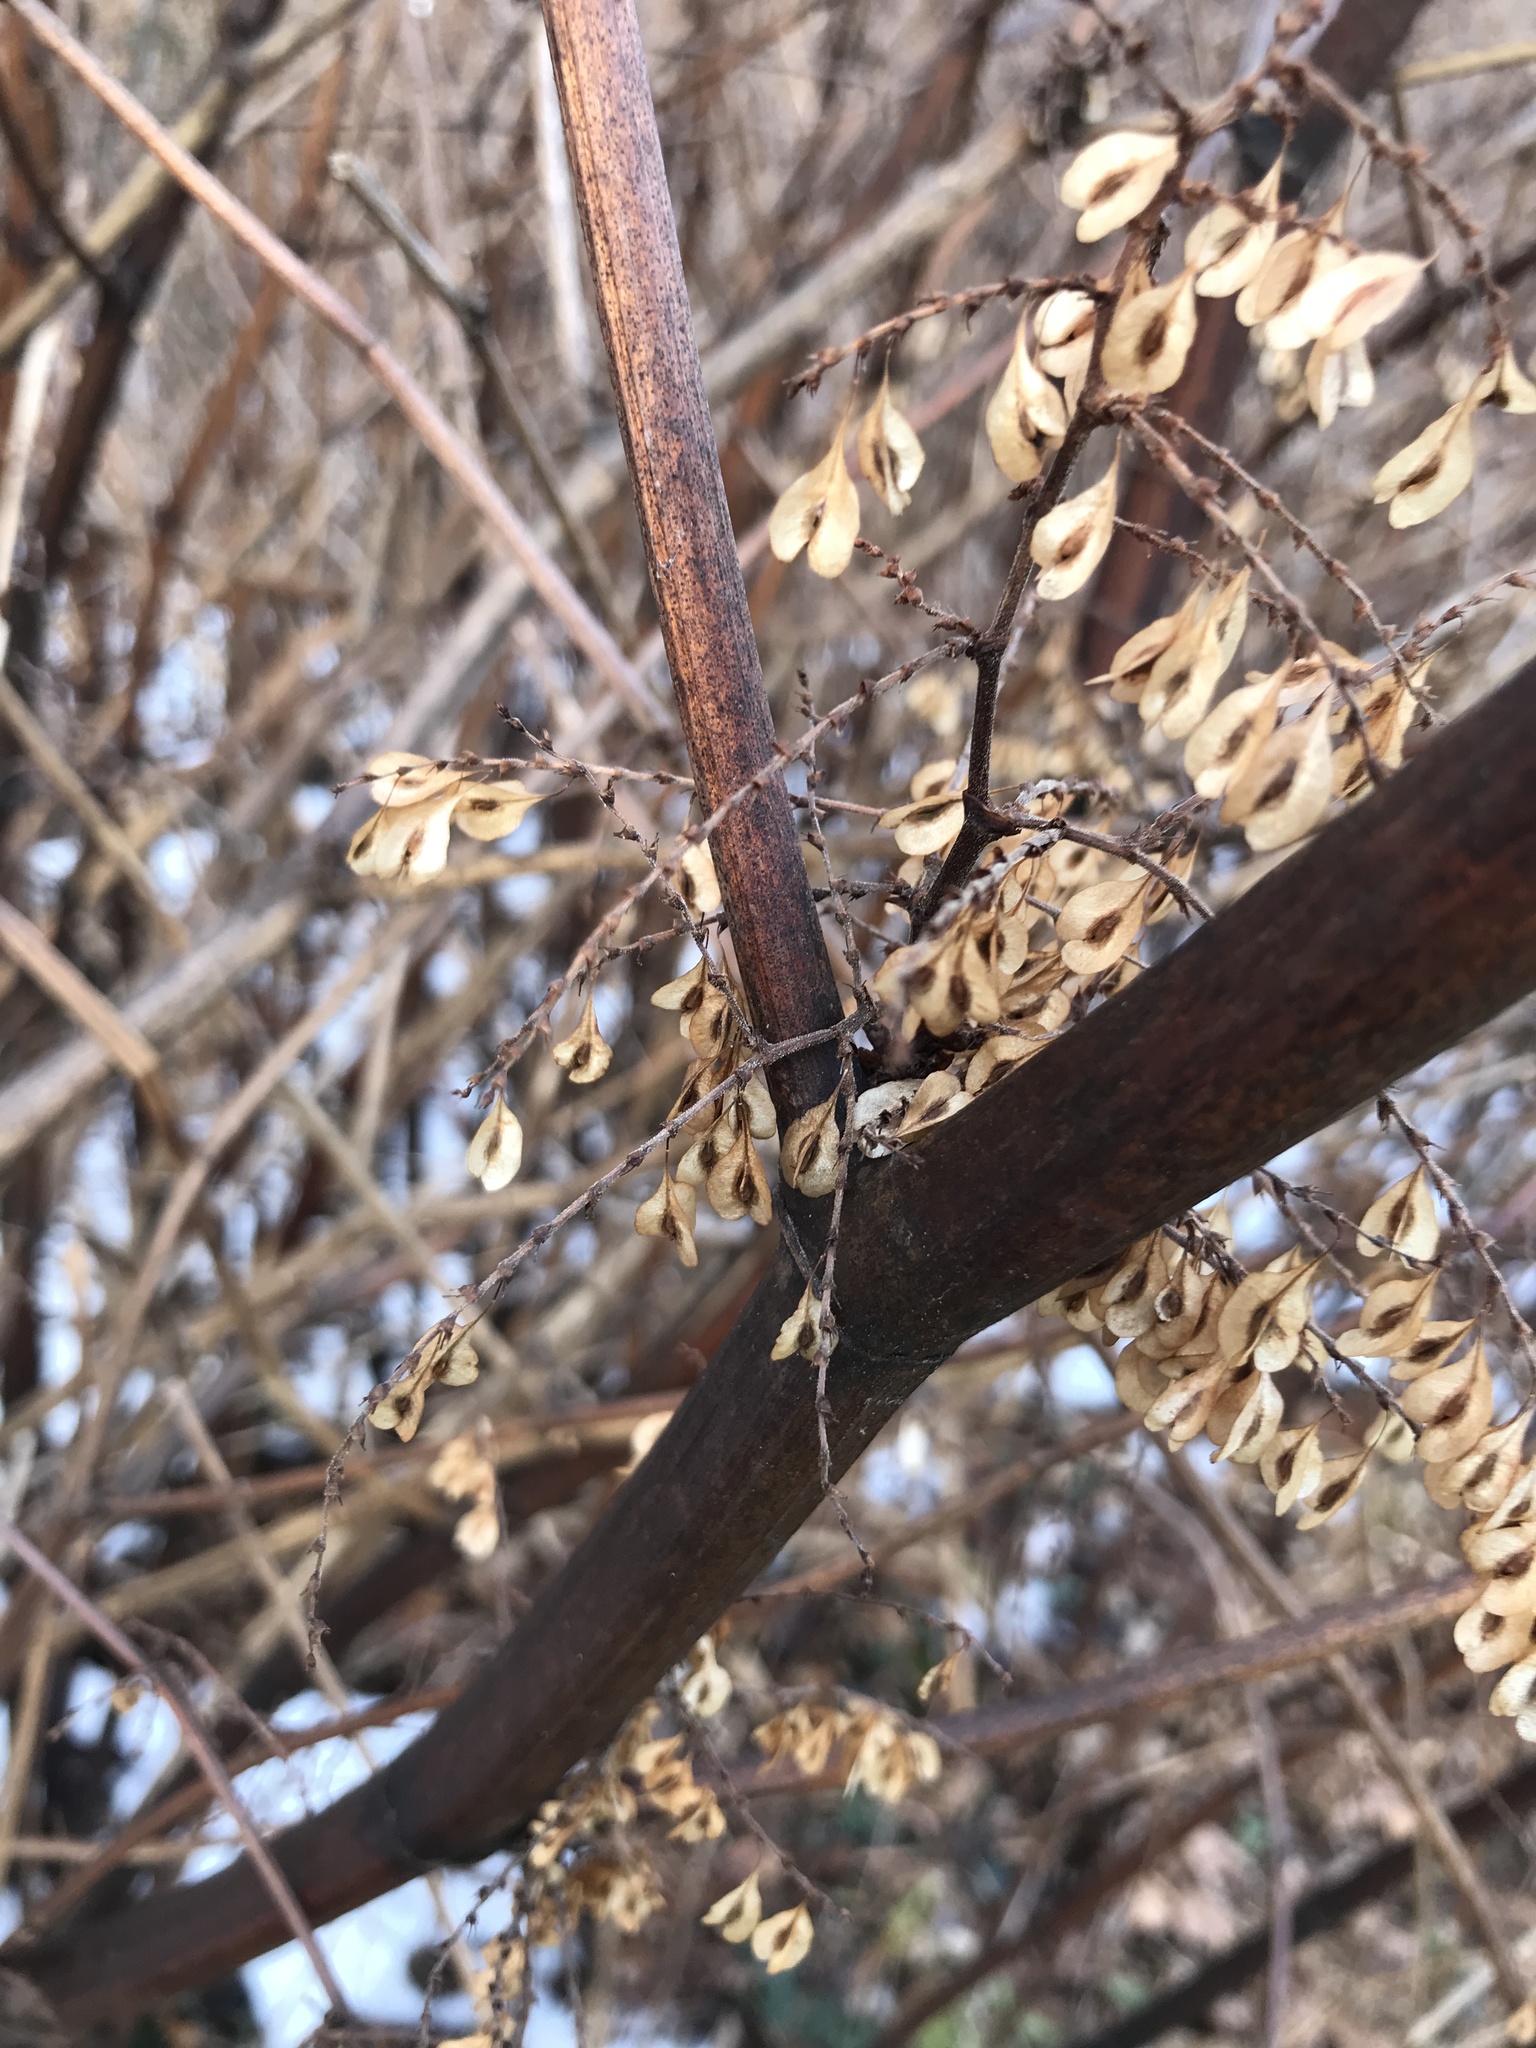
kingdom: Plantae
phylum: Tracheophyta
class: Magnoliopsida
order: Caryophyllales
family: Polygonaceae
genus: Reynoutria
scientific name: Reynoutria japonica
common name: Japanese knotweed
